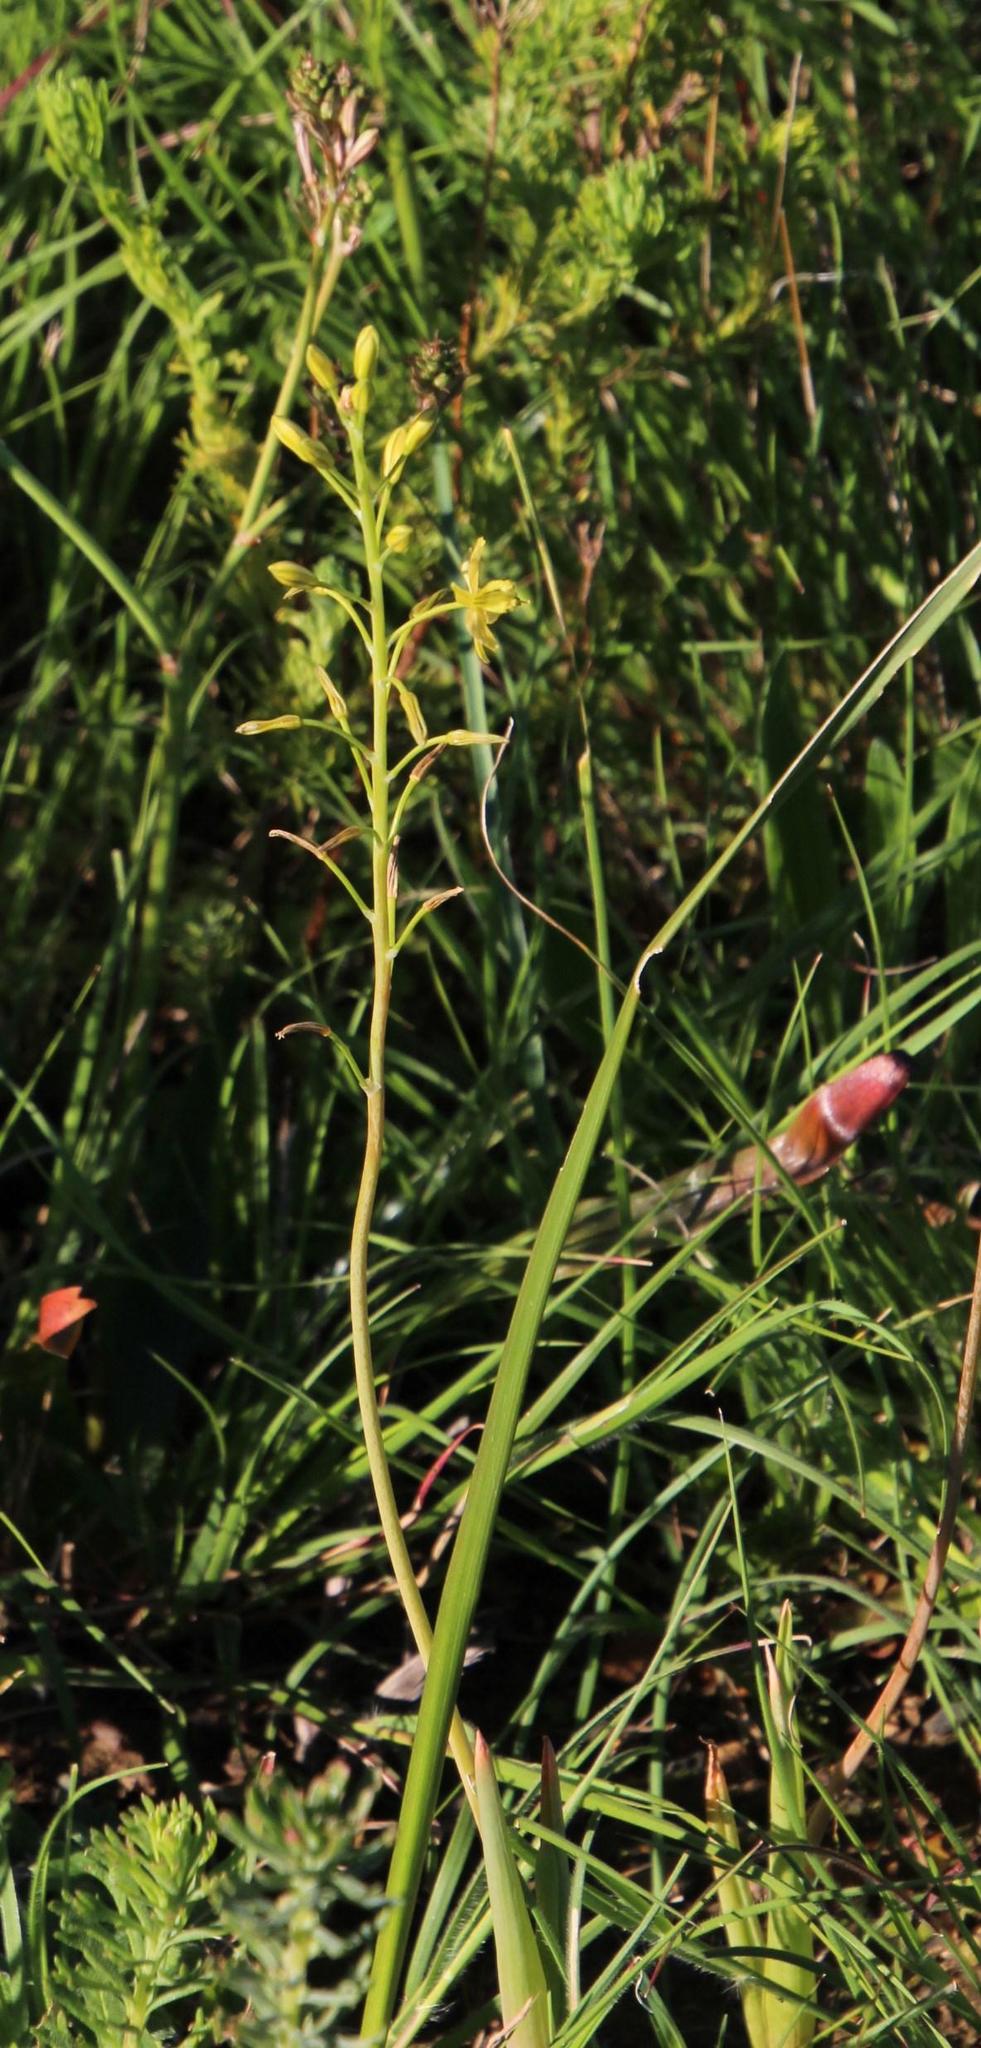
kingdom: Plantae
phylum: Tracheophyta
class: Liliopsida
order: Asparagales
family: Asphodelaceae
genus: Bulbine
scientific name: Bulbine praemorsa
